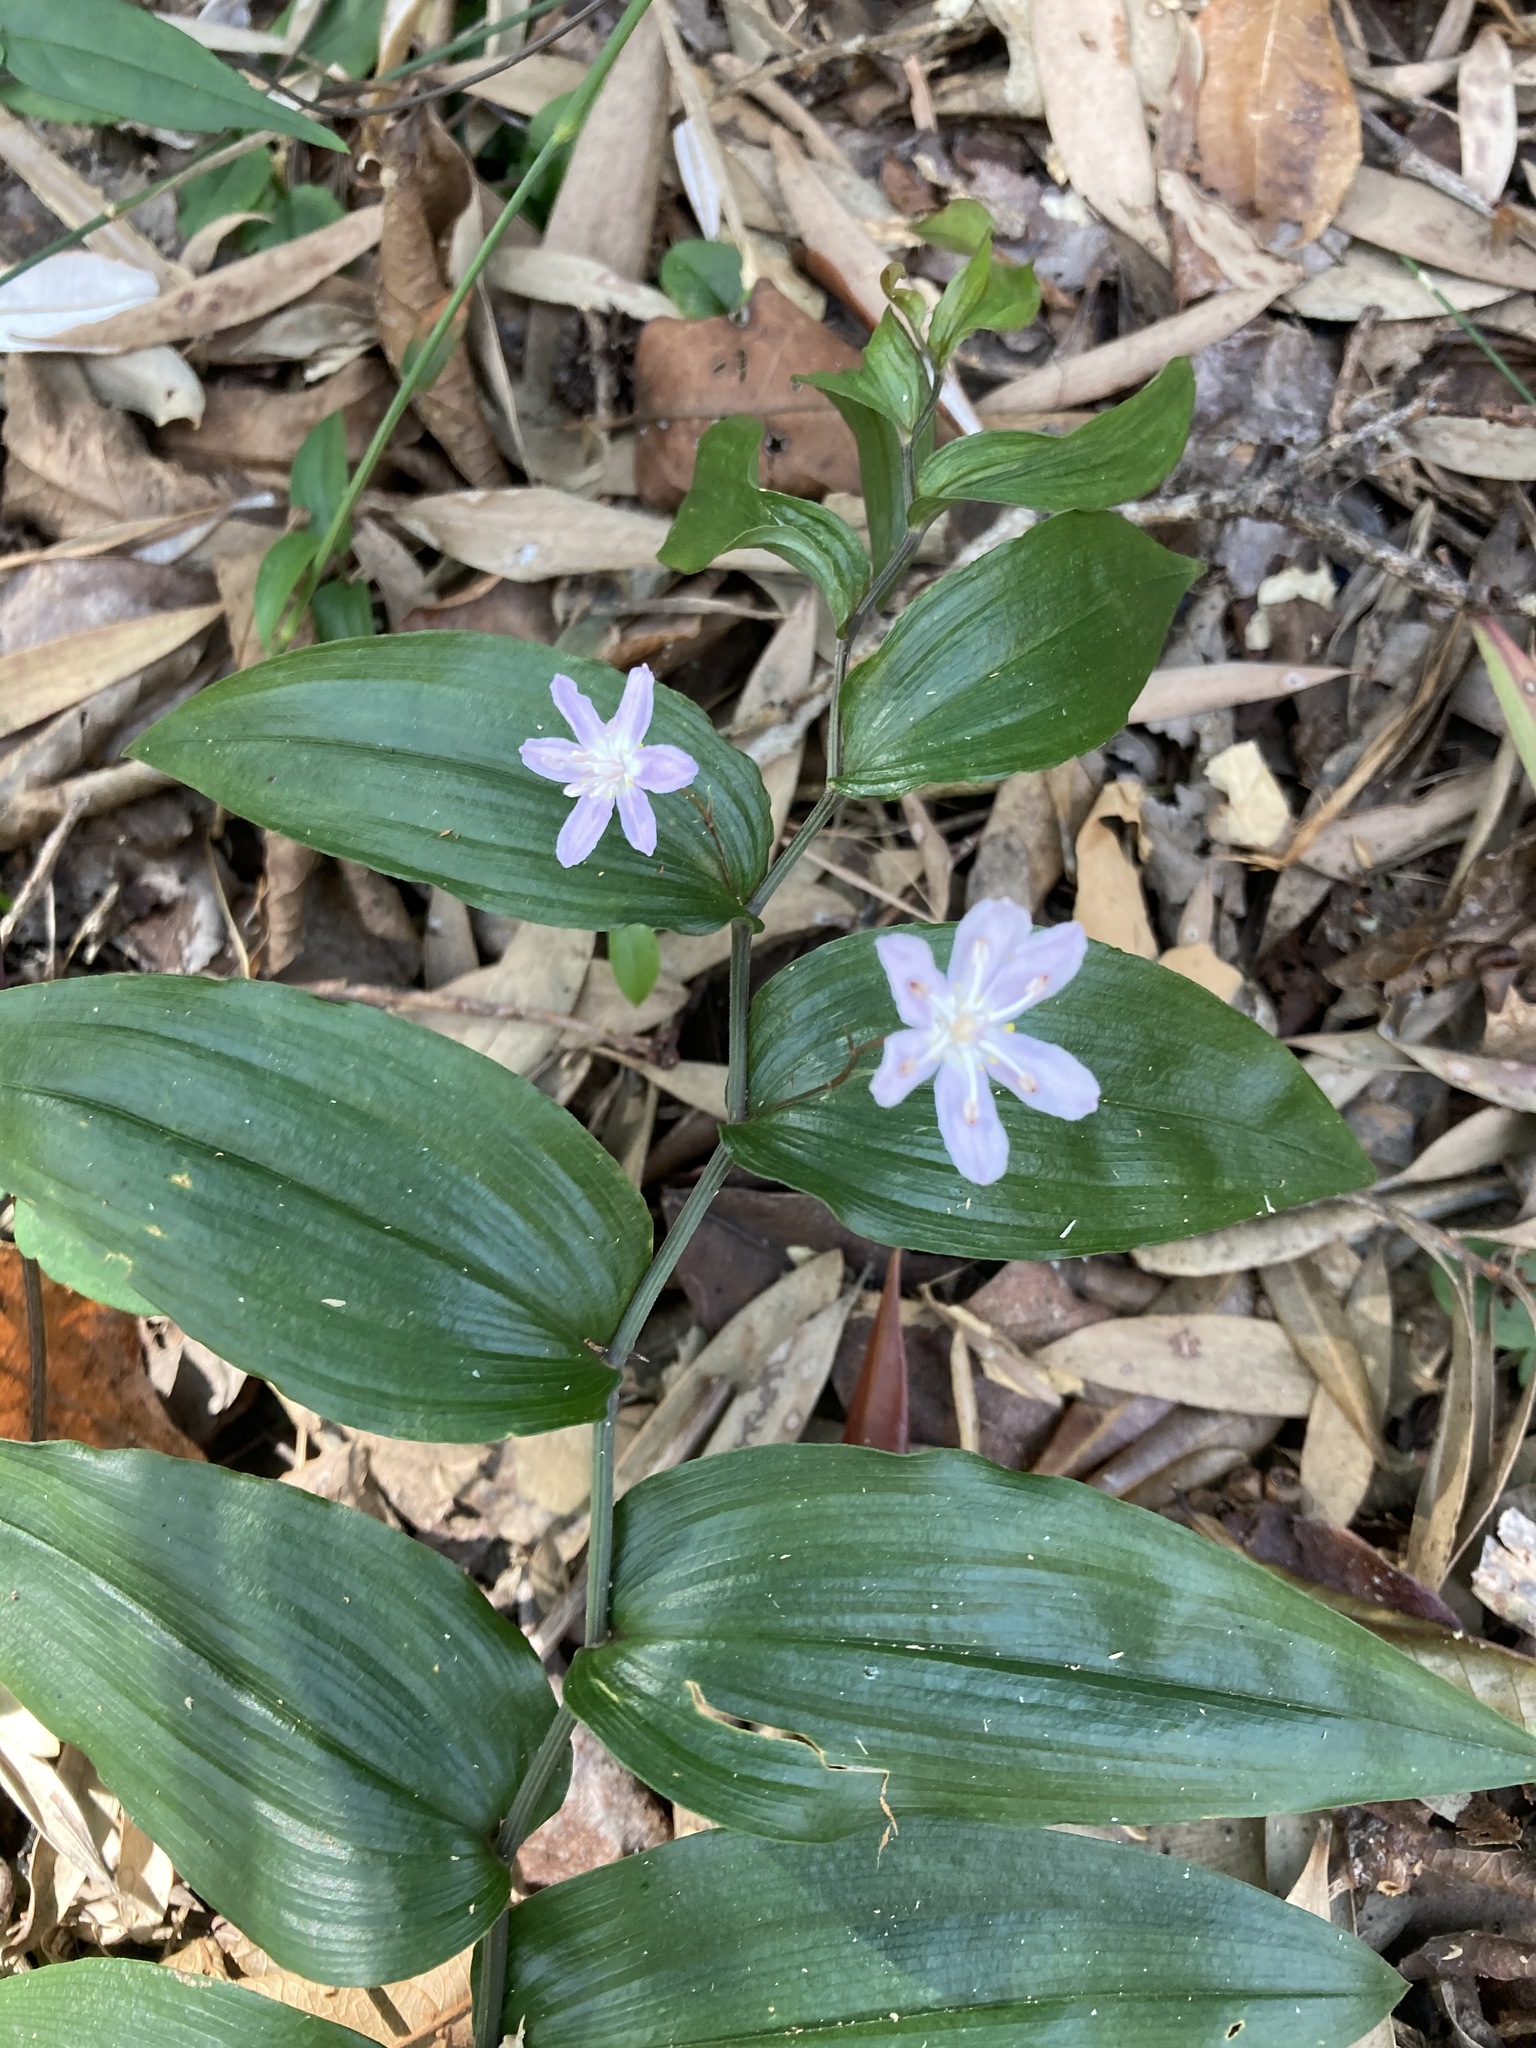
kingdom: Plantae
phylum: Tracheophyta
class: Liliopsida
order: Liliales
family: Colchicaceae
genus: Tripladenia
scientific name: Tripladenia cunninghamii
